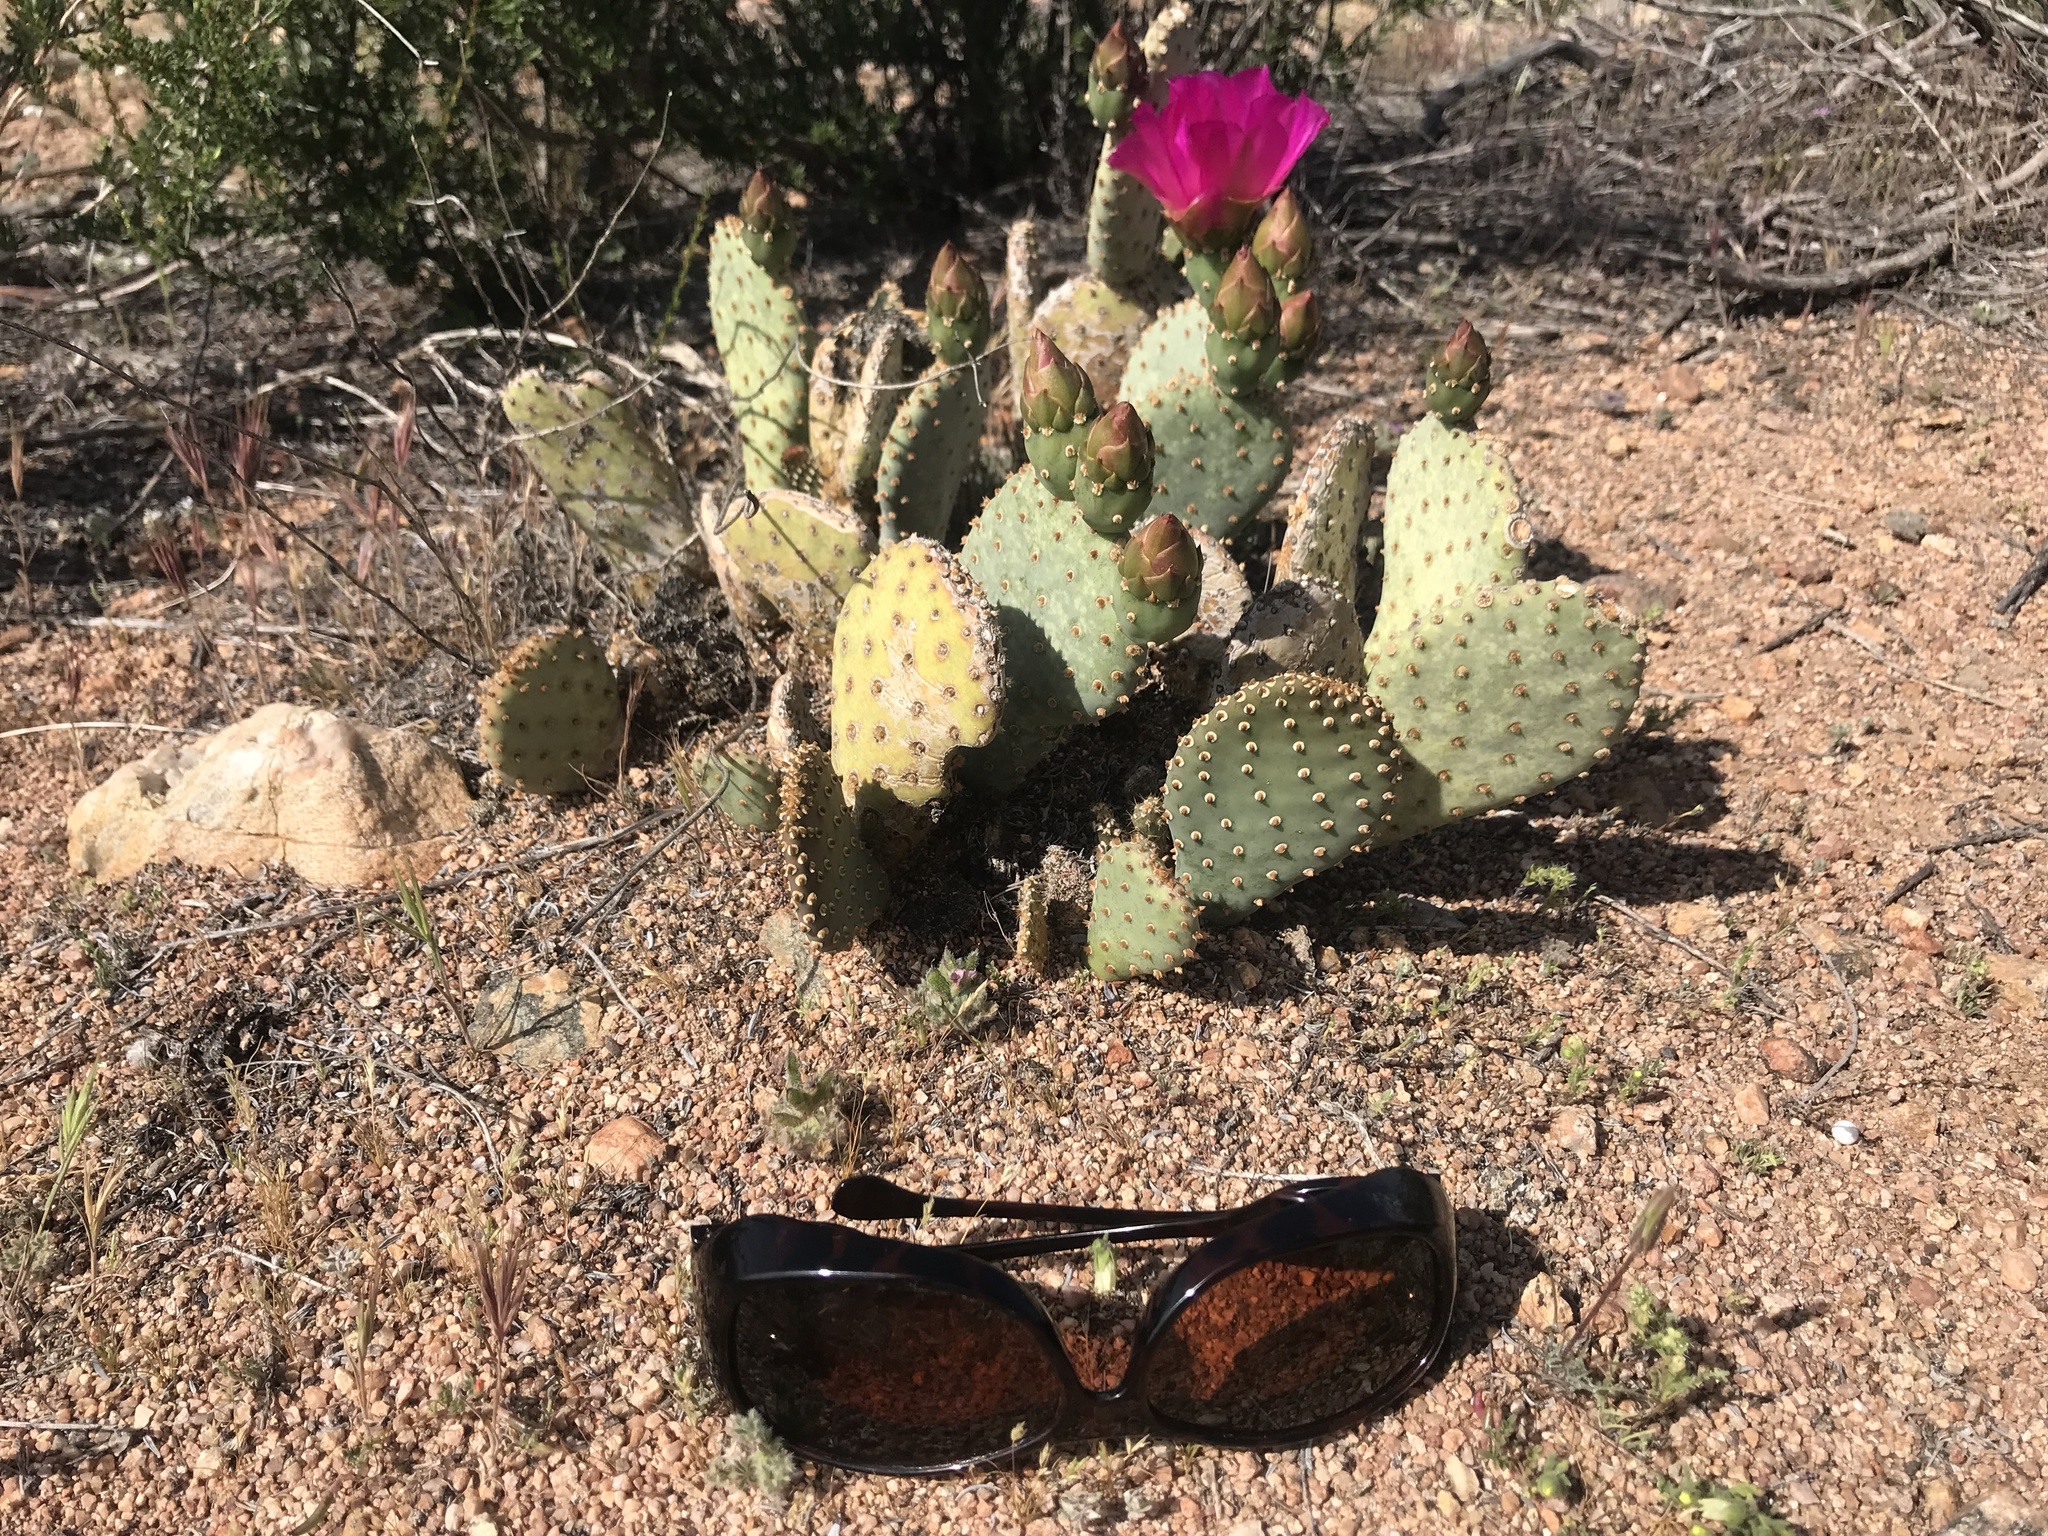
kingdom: Plantae
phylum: Tracheophyta
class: Magnoliopsida
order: Caryophyllales
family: Cactaceae
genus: Opuntia
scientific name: Opuntia basilaris
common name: Beavertail prickly-pear
